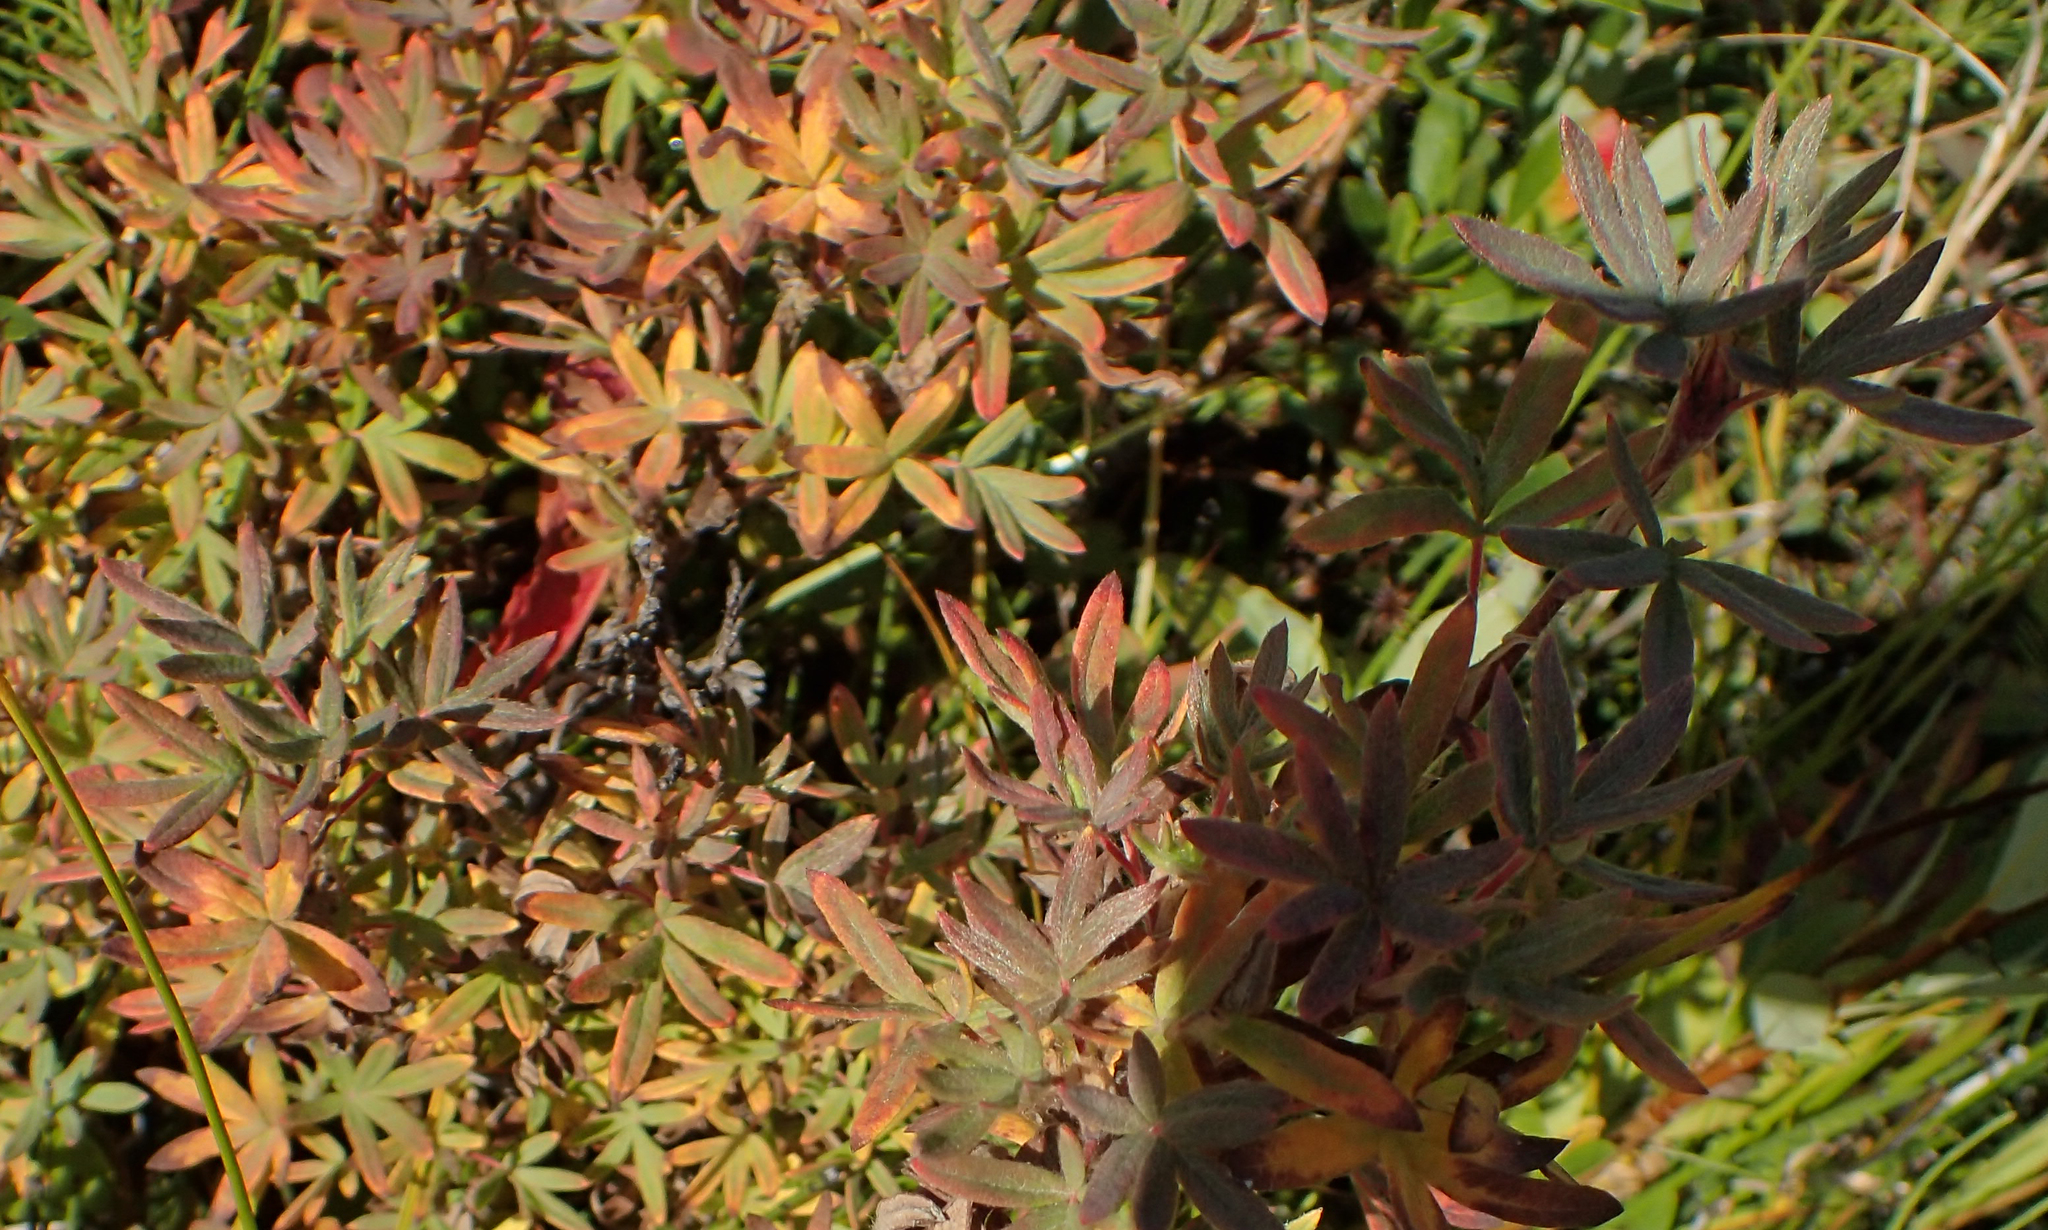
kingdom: Plantae
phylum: Tracheophyta
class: Magnoliopsida
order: Rosales
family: Rosaceae
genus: Dasiphora
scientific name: Dasiphora fruticosa
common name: Shrubby cinquefoil
